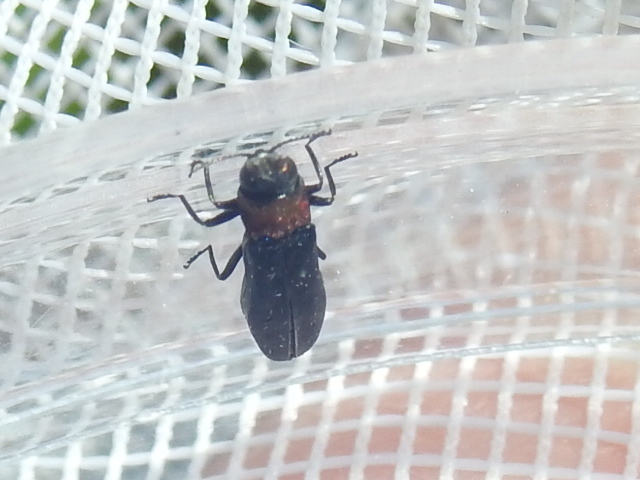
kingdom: Animalia
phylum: Arthropoda
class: Insecta
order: Coleoptera
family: Buprestidae
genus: Agrilus
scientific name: Agrilus ruficollis
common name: Red-necked cane borer beetle
